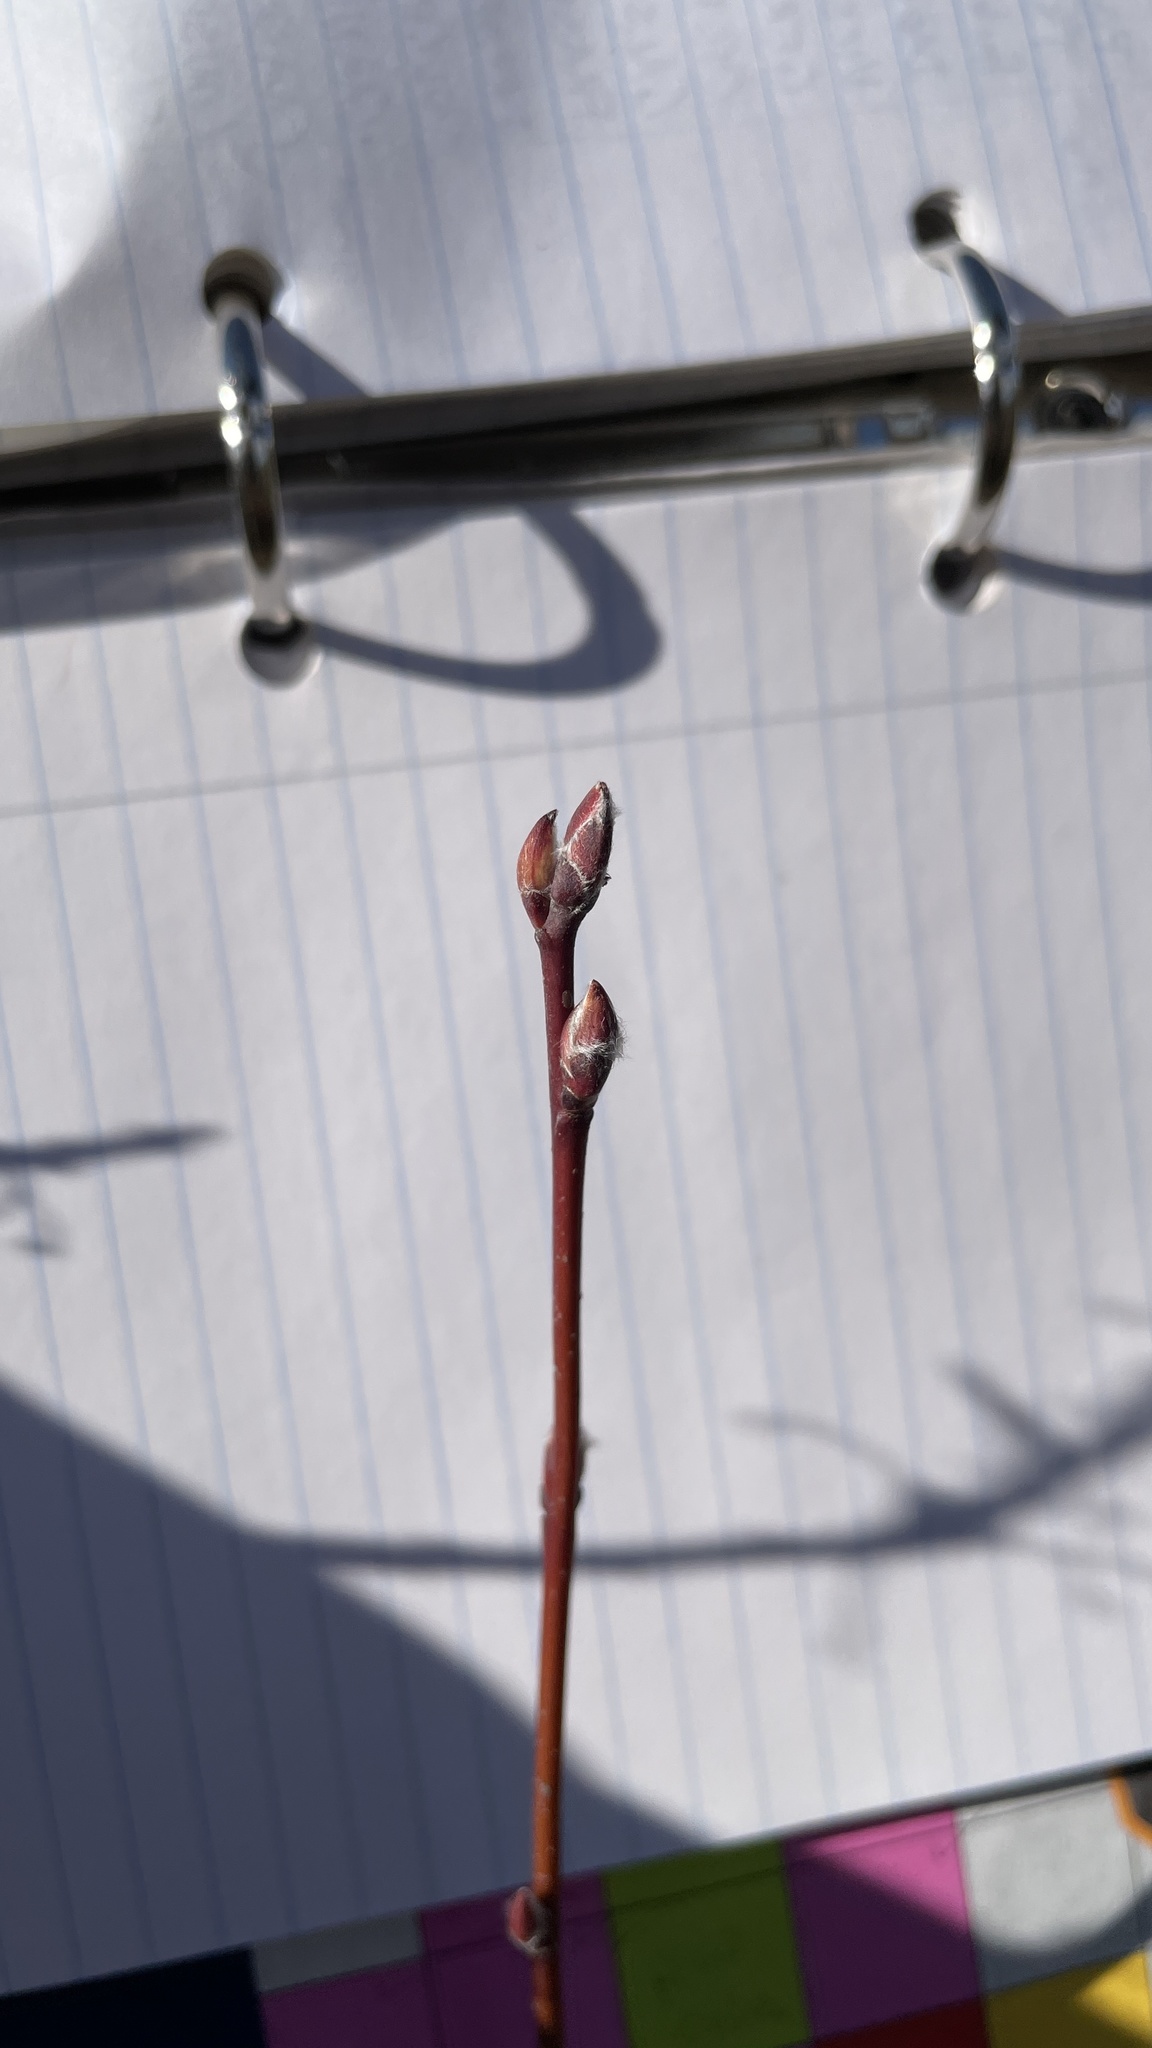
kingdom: Plantae
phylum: Tracheophyta
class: Magnoliopsida
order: Rosales
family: Rosaceae
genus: Amelanchier
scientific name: Amelanchier alnifolia
